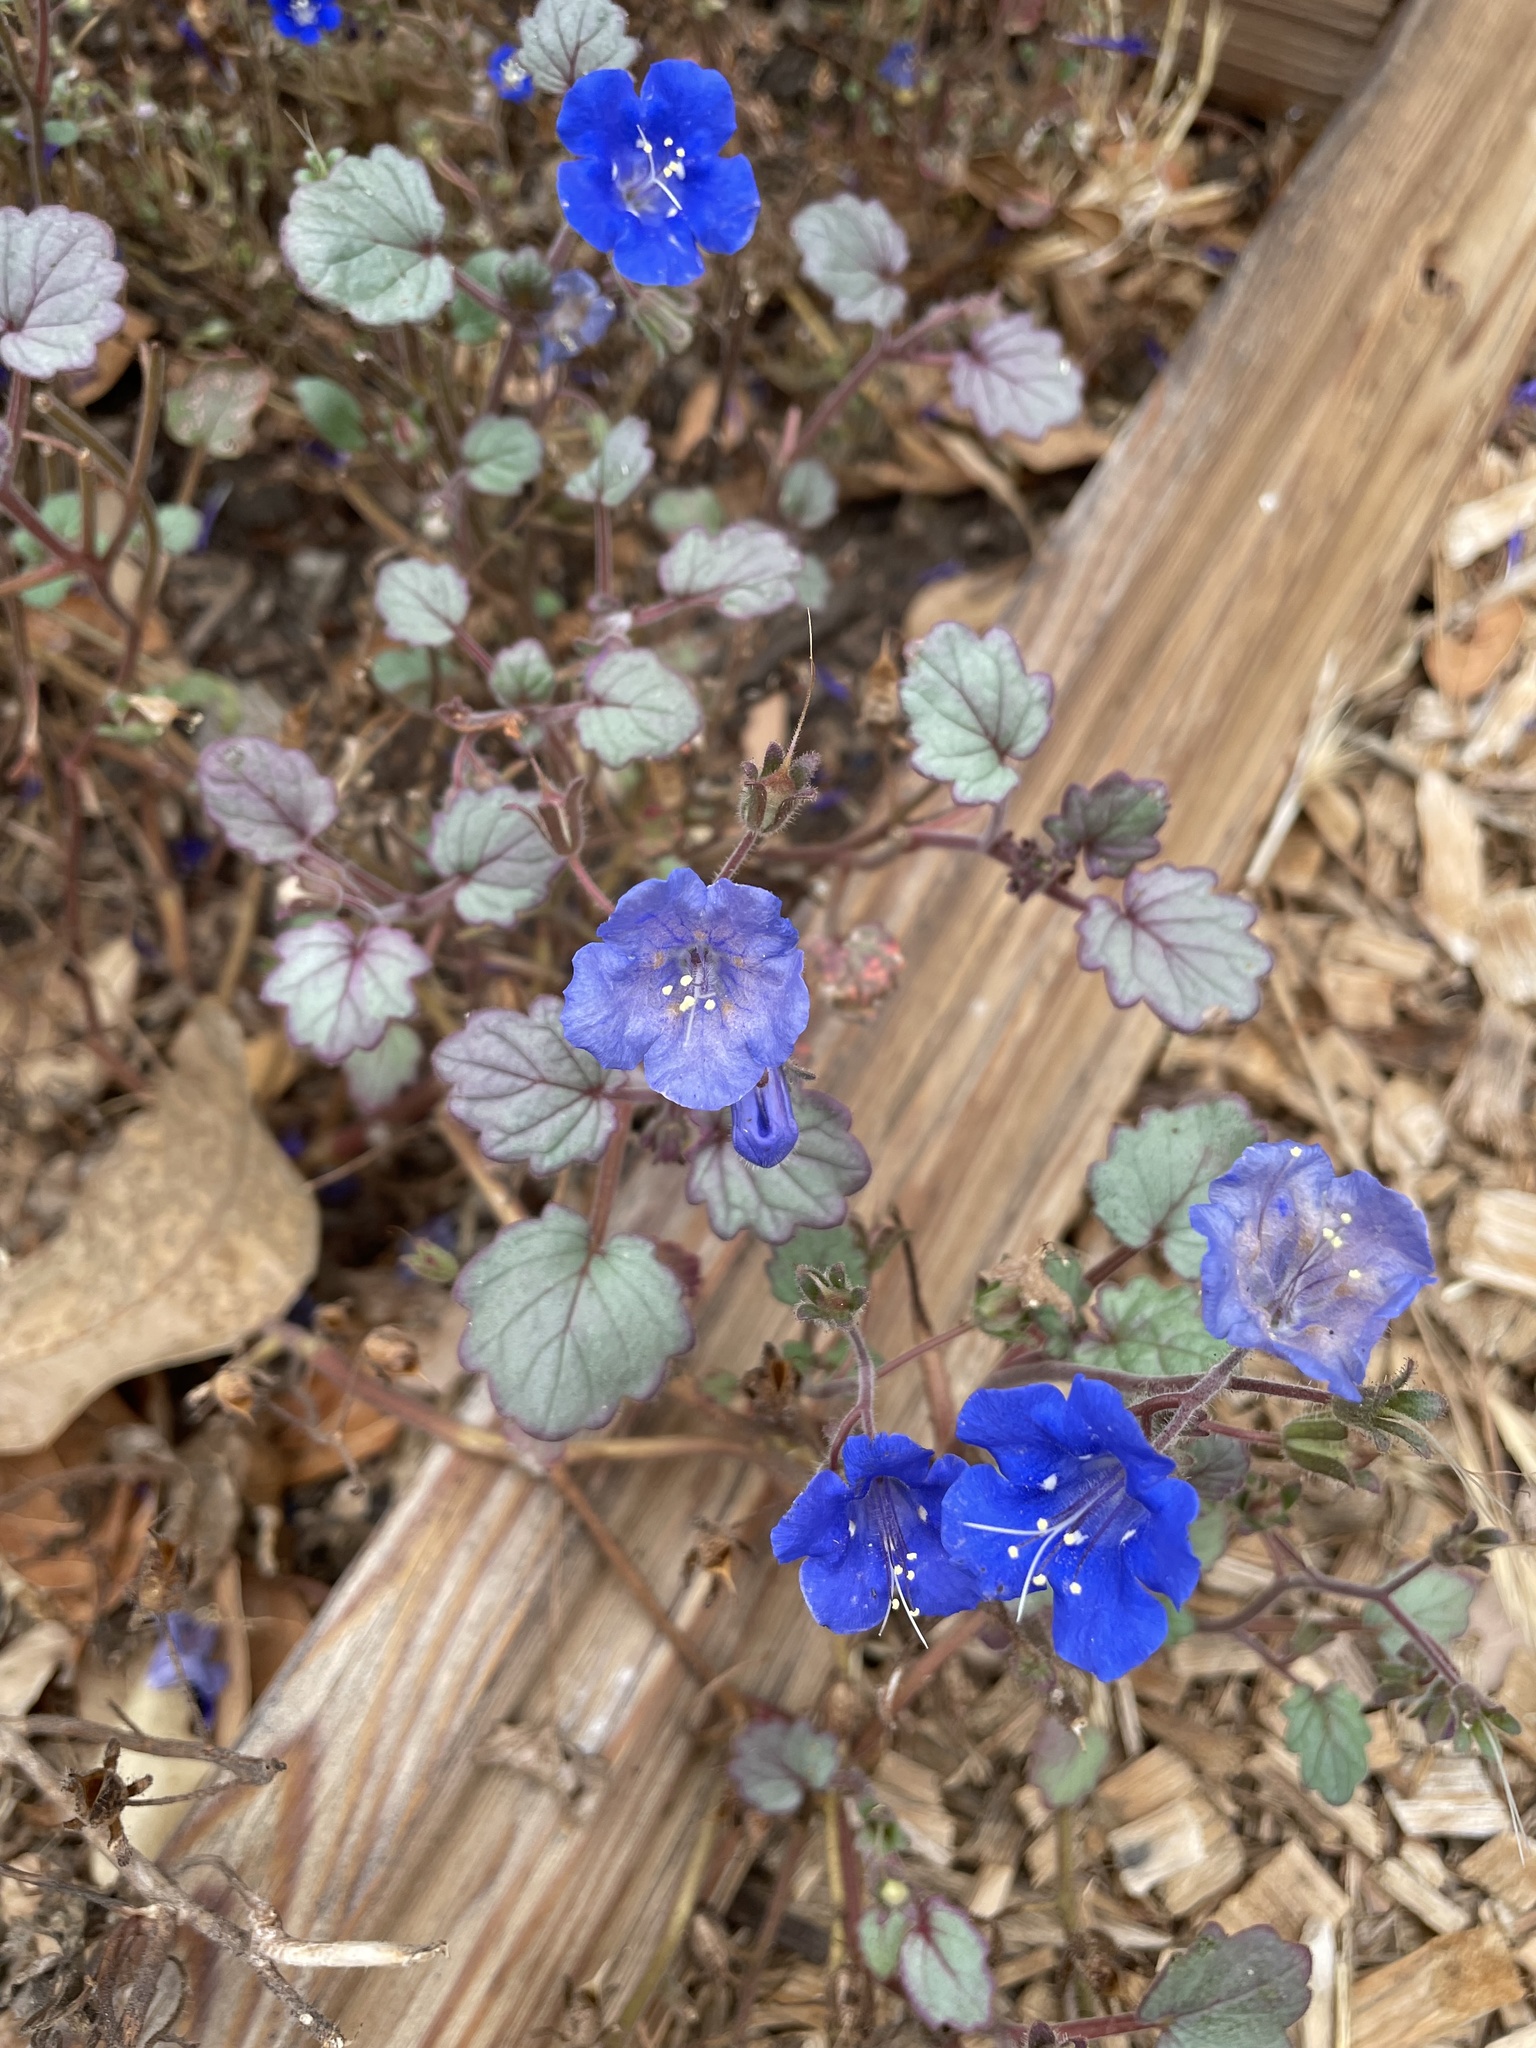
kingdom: Plantae
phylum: Tracheophyta
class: Magnoliopsida
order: Boraginales
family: Hydrophyllaceae
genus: Phacelia
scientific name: Phacelia campanularia
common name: California bluebell
